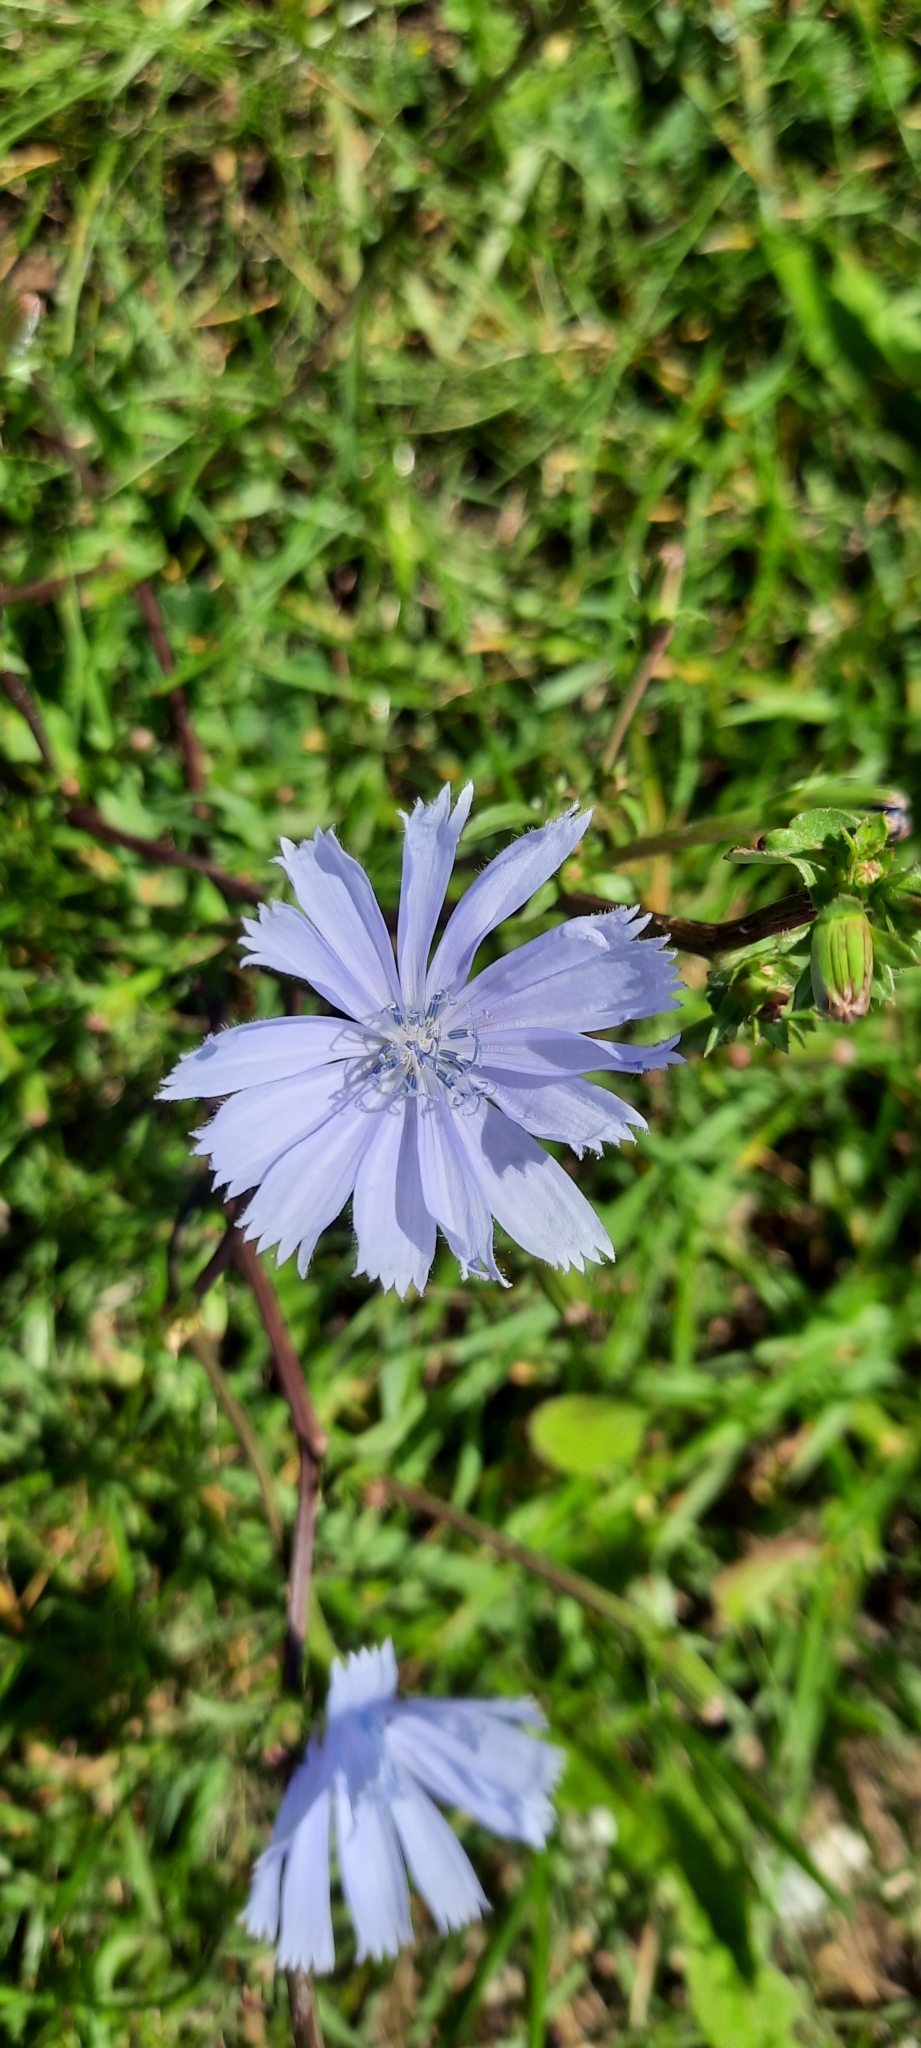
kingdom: Plantae
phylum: Tracheophyta
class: Magnoliopsida
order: Asterales
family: Asteraceae
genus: Cichorium
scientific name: Cichorium intybus
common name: Chicory
